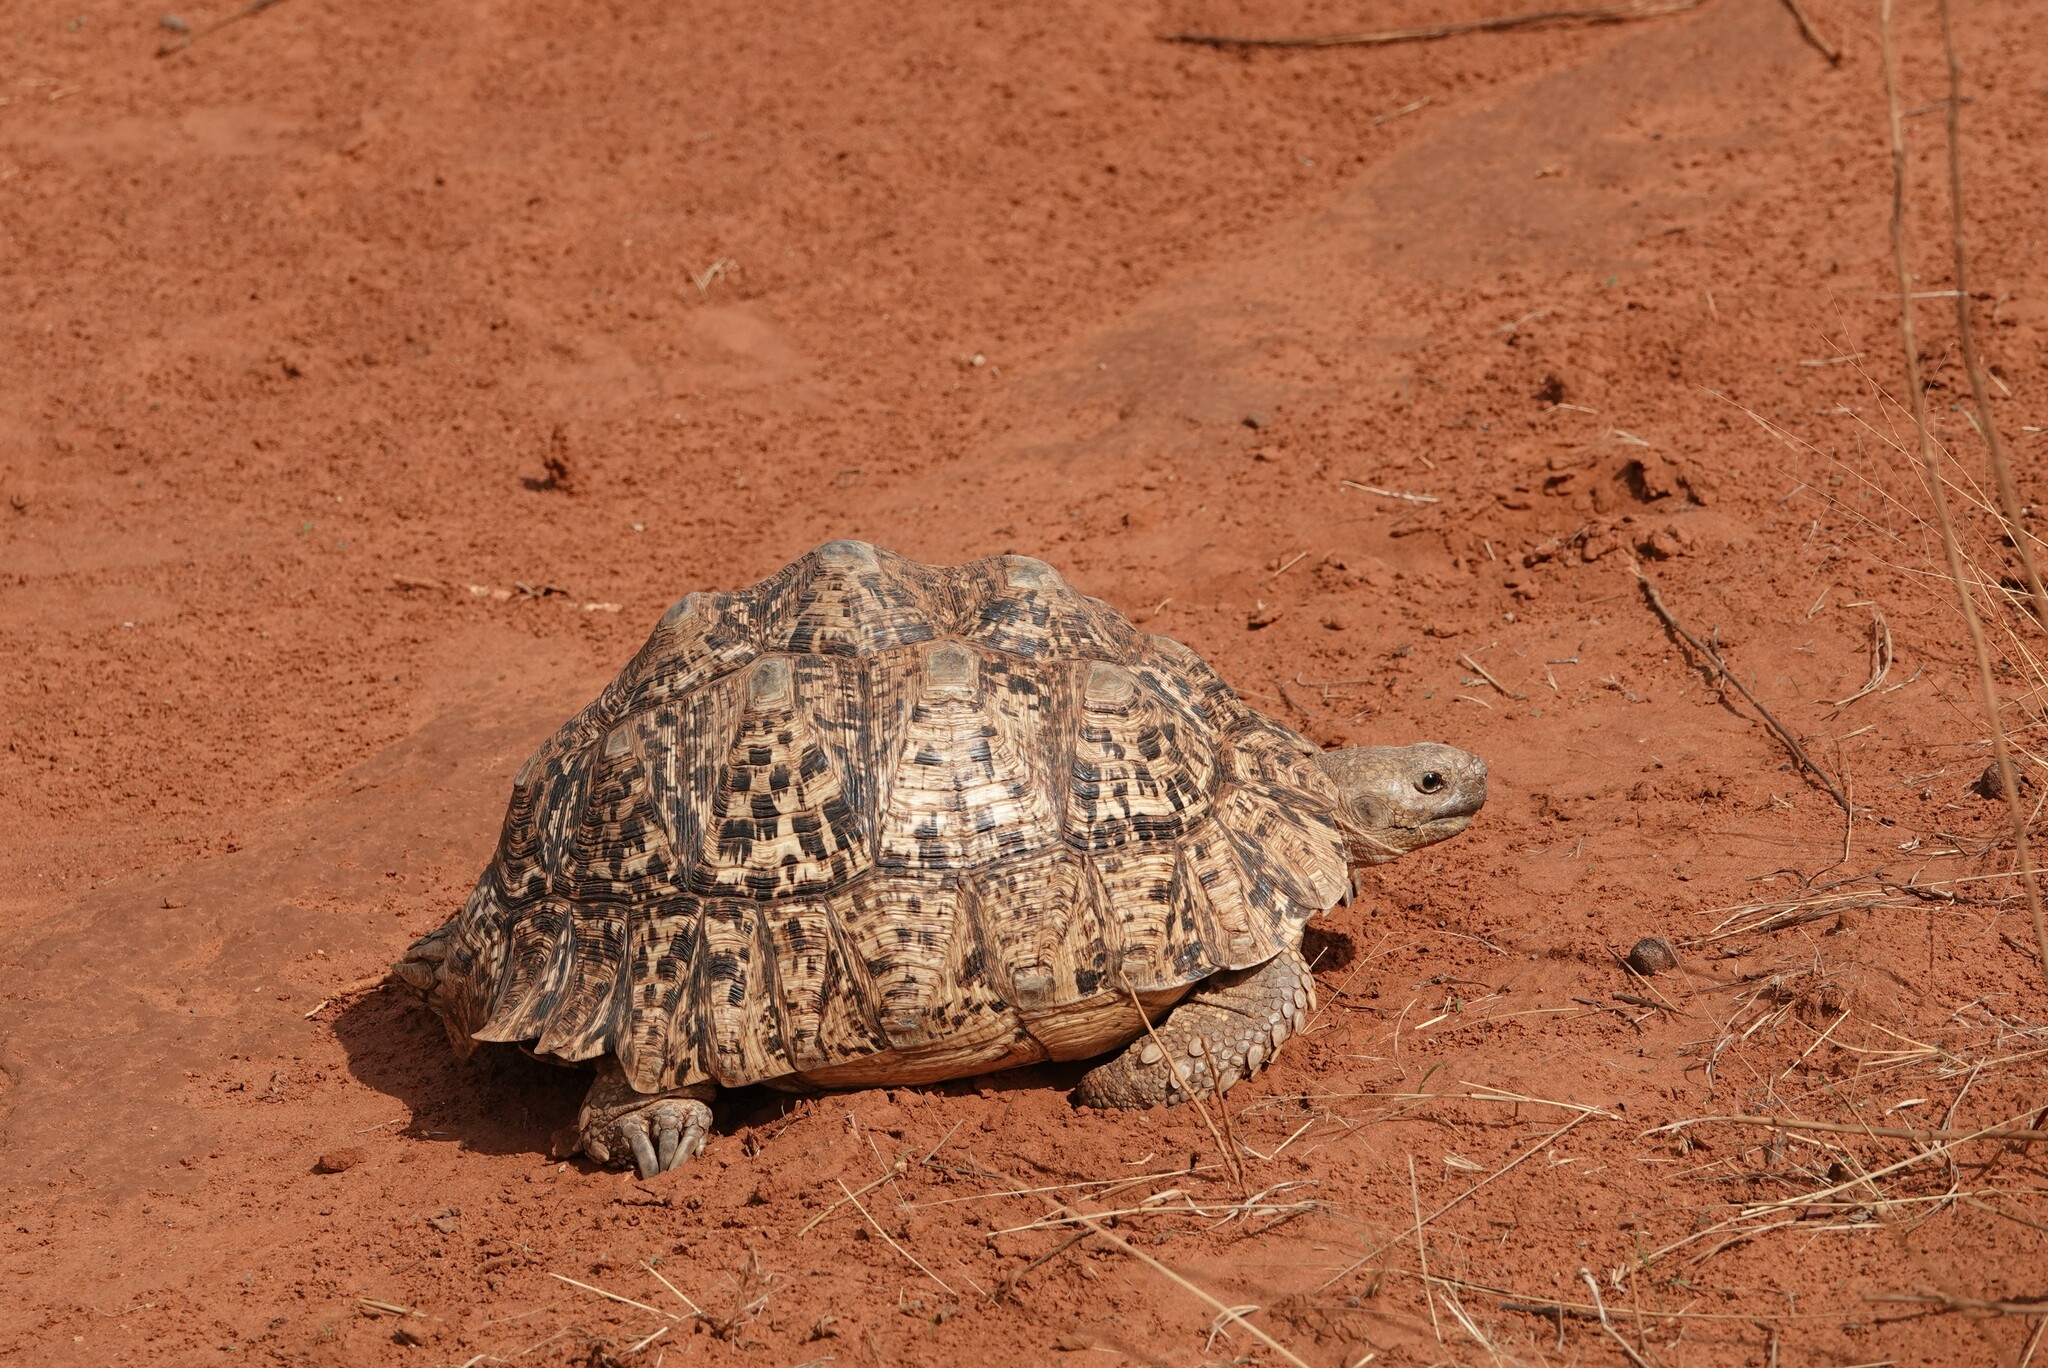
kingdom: Animalia
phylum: Chordata
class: Testudines
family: Testudinidae
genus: Stigmochelys
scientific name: Stigmochelys pardalis
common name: Leopard tortoise
